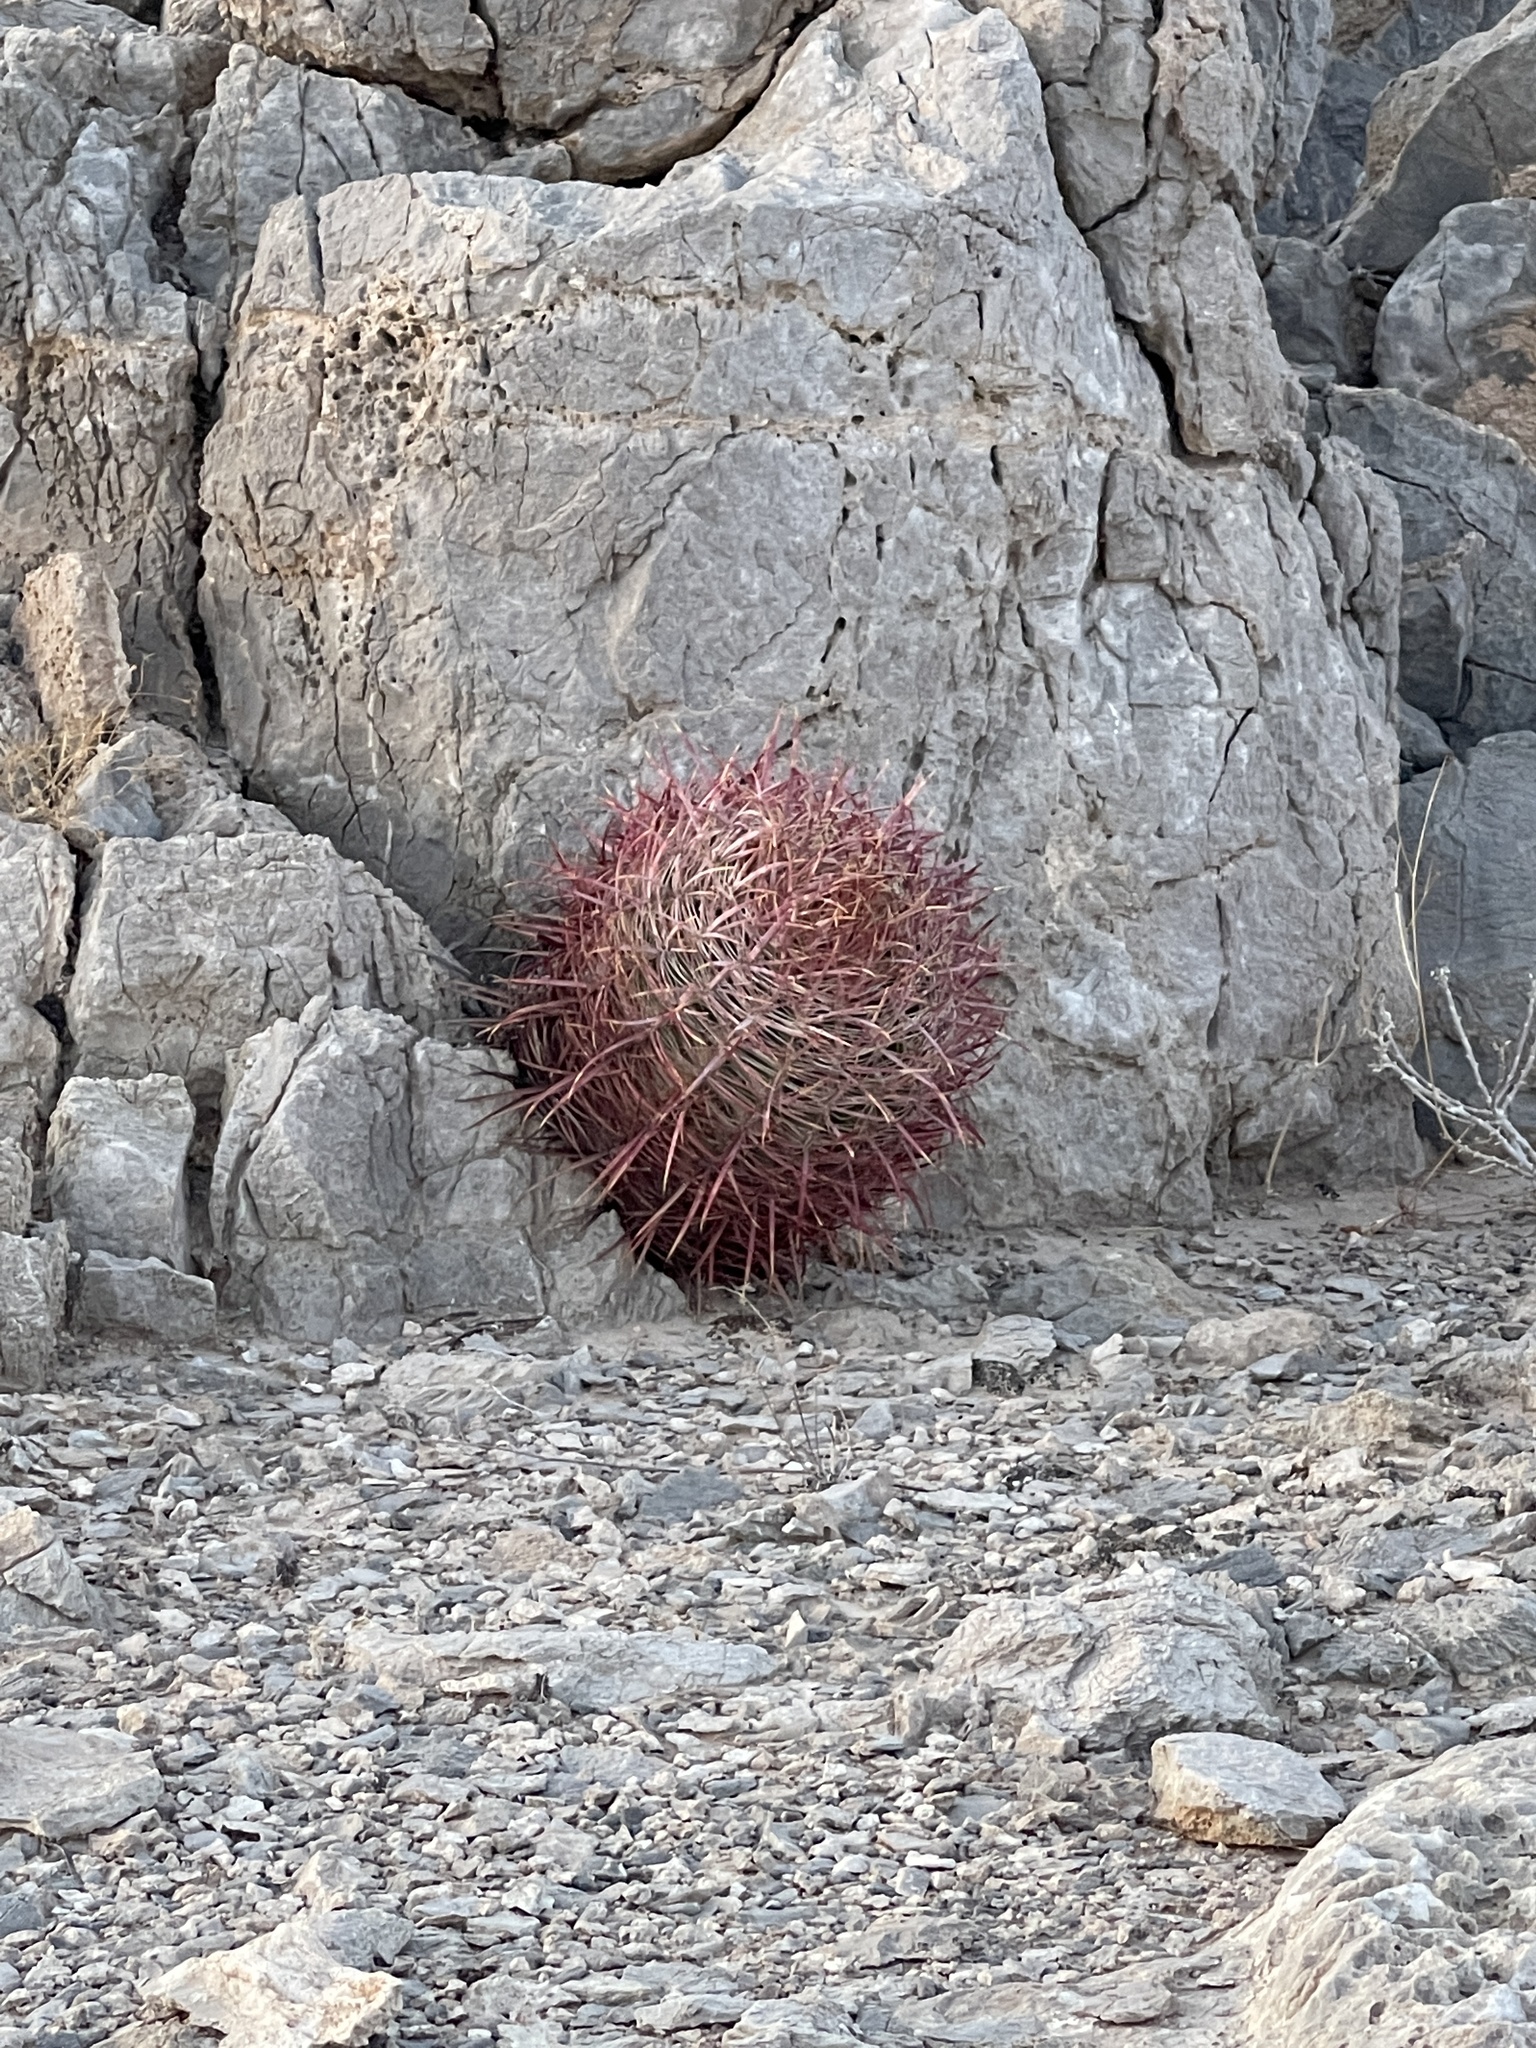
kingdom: Plantae
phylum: Tracheophyta
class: Magnoliopsida
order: Caryophyllales
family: Cactaceae
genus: Ferocactus
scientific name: Ferocactus cylindraceus
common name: California barrel cactus
